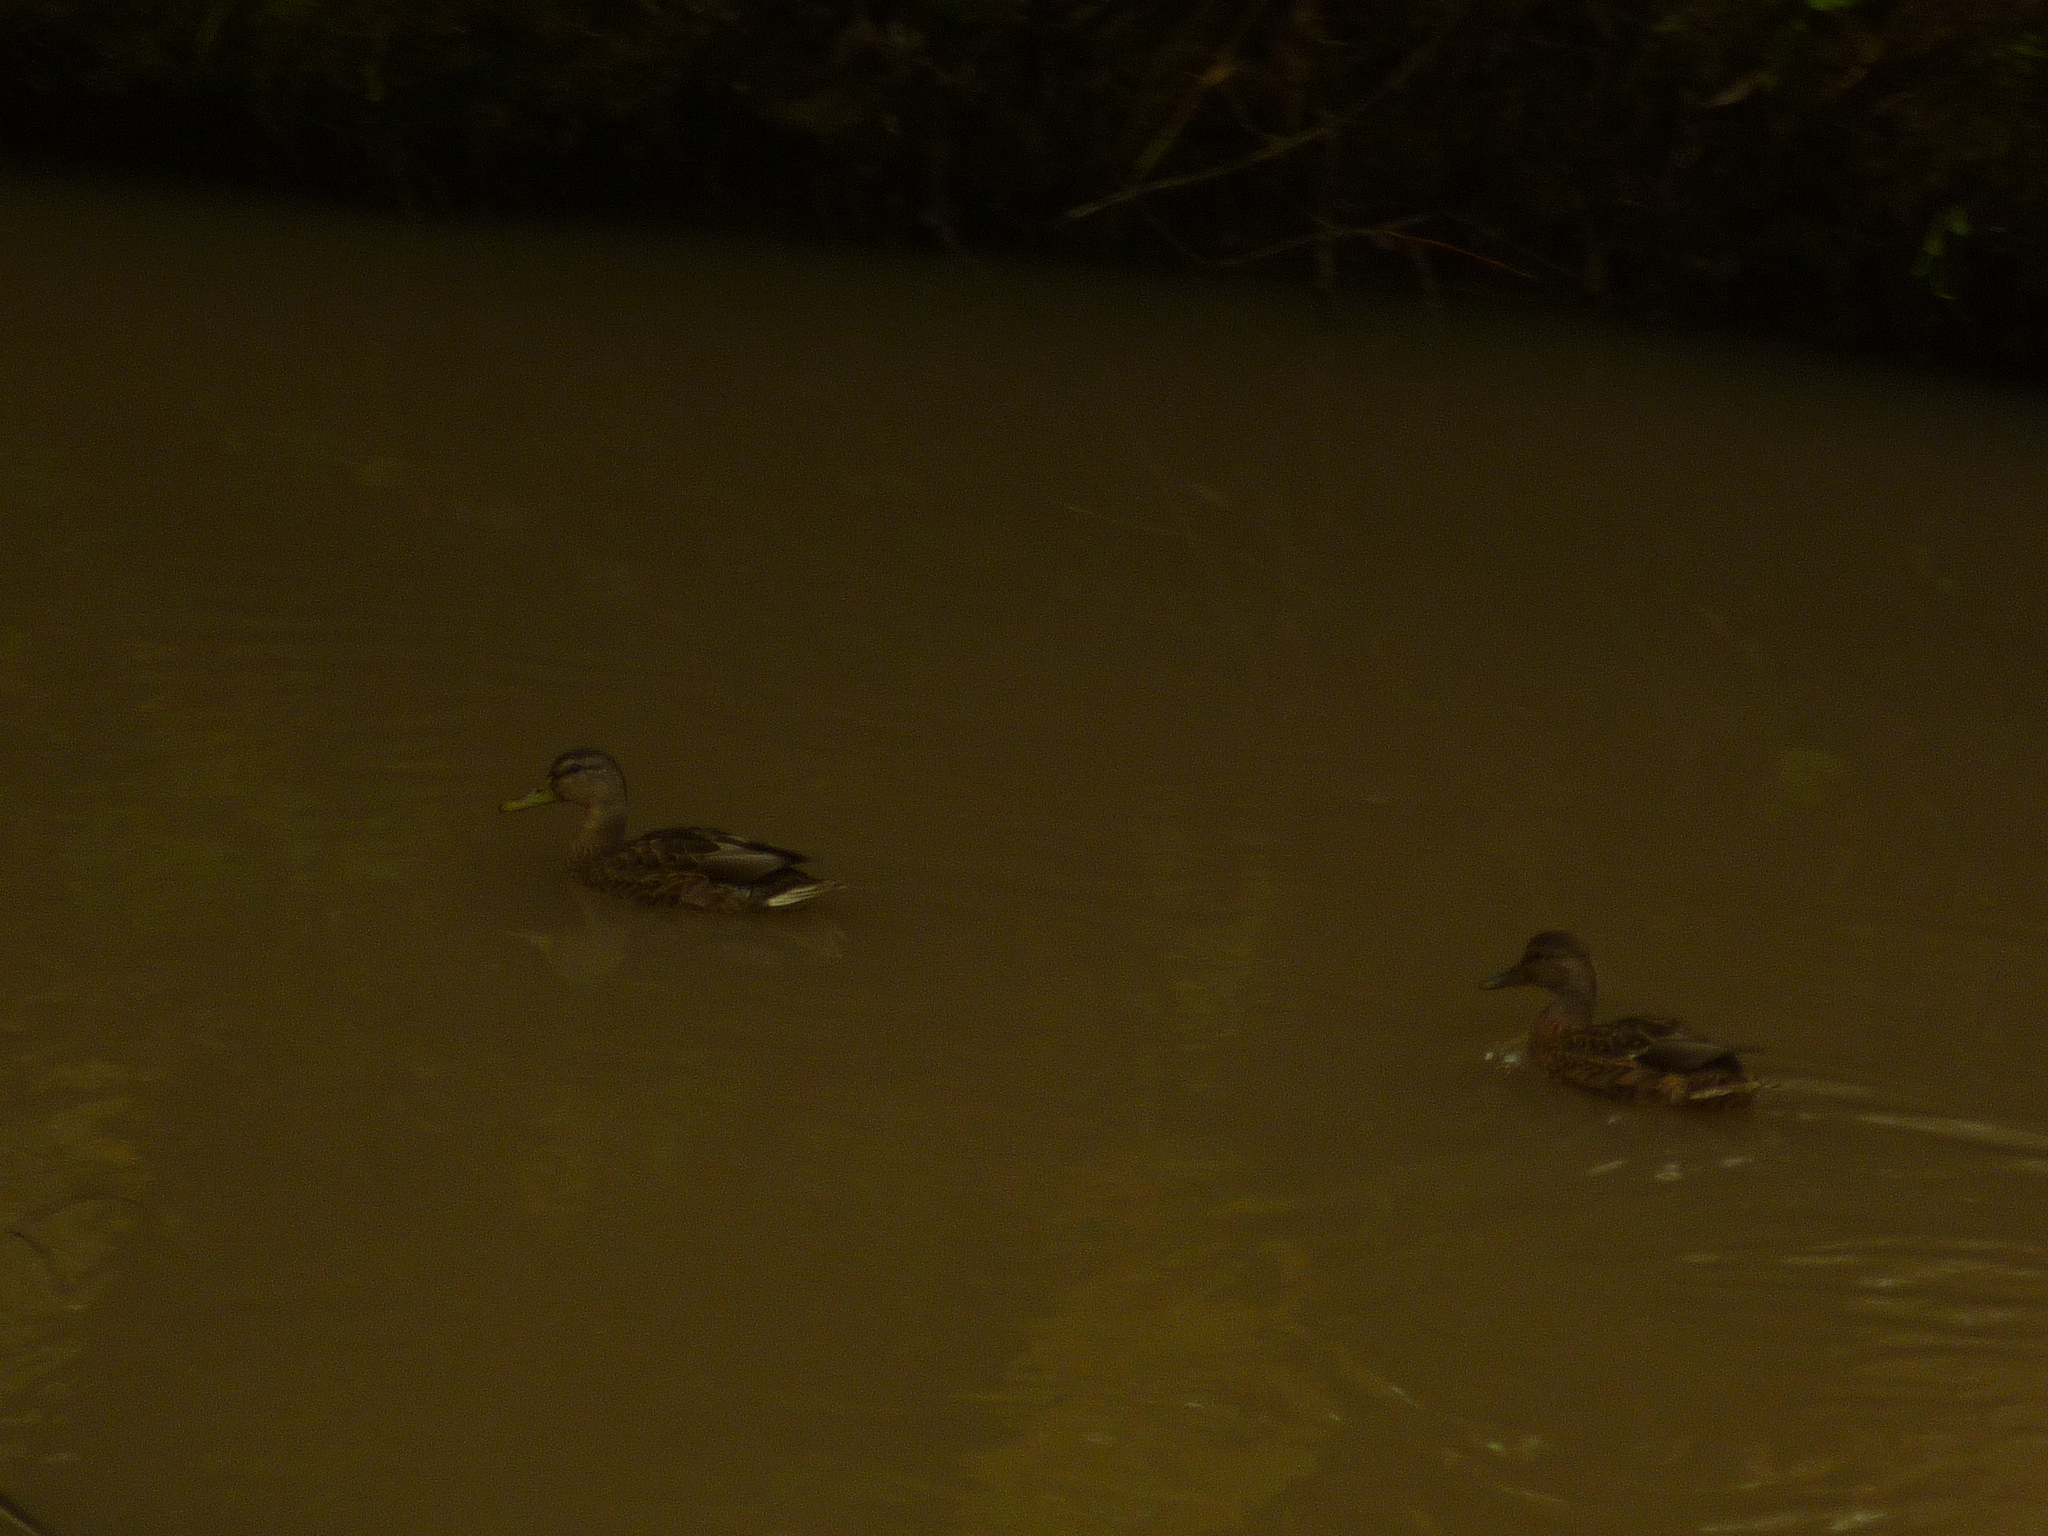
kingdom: Animalia
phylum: Chordata
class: Aves
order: Anseriformes
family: Anatidae
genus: Anas
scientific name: Anas platyrhynchos
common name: Mallard
